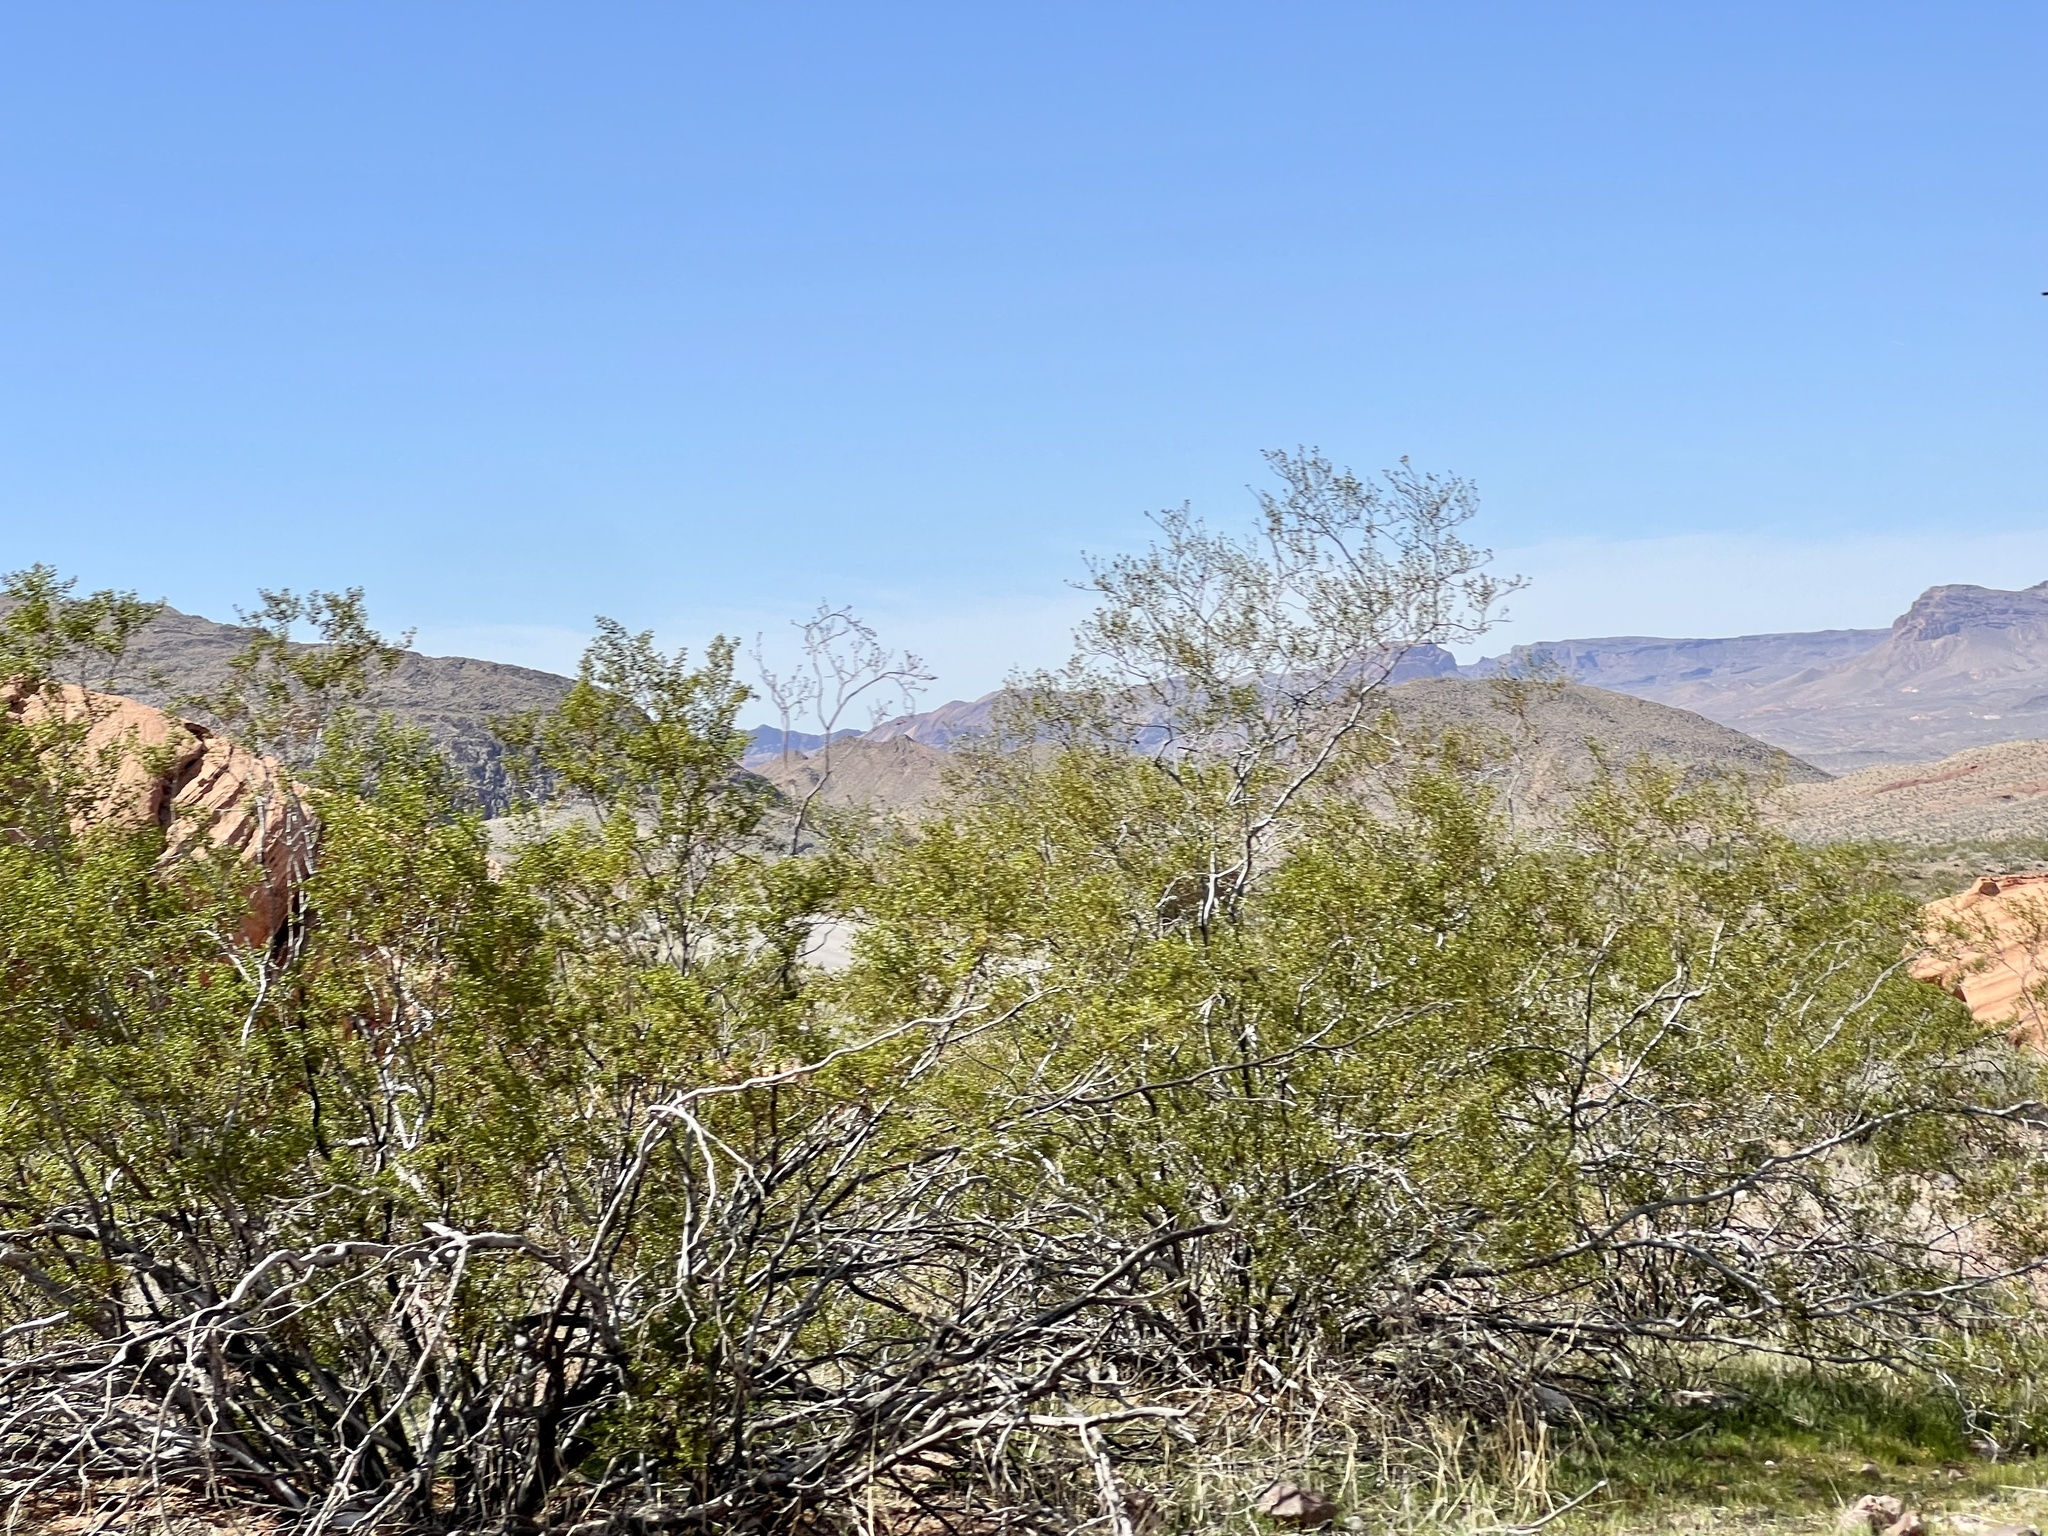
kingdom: Plantae
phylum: Tracheophyta
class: Magnoliopsida
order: Zygophyllales
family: Zygophyllaceae
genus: Larrea
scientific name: Larrea tridentata
